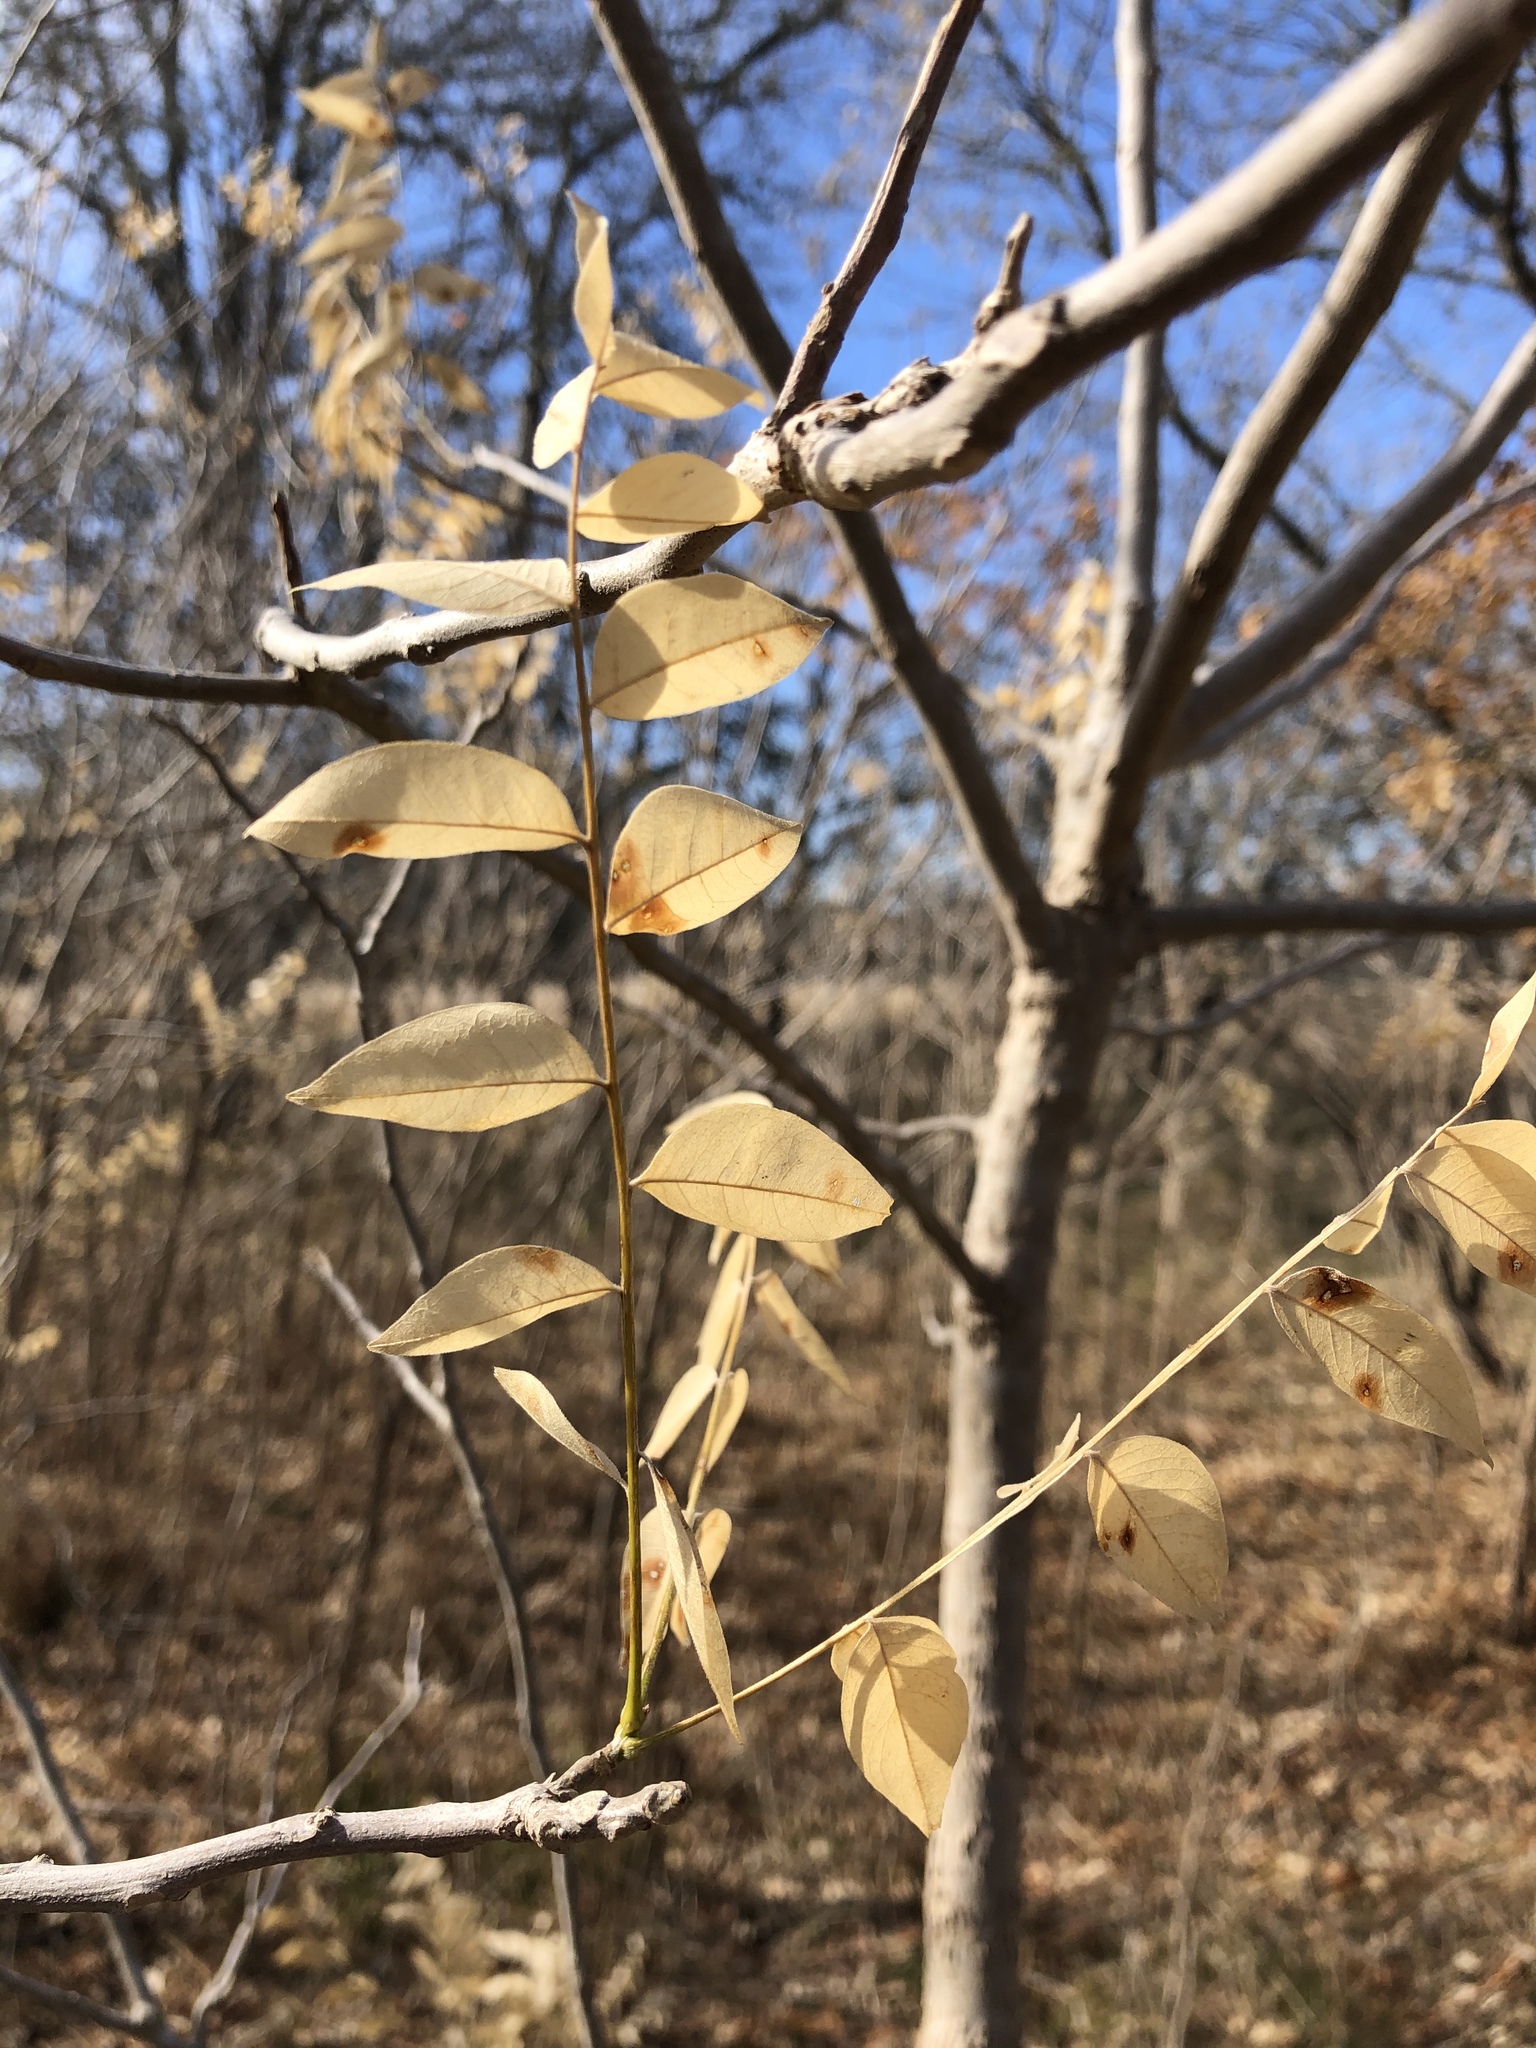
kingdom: Plantae
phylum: Tracheophyta
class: Magnoliopsida
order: Sapindales
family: Sapindaceae
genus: Sapindus
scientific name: Sapindus drummondii
